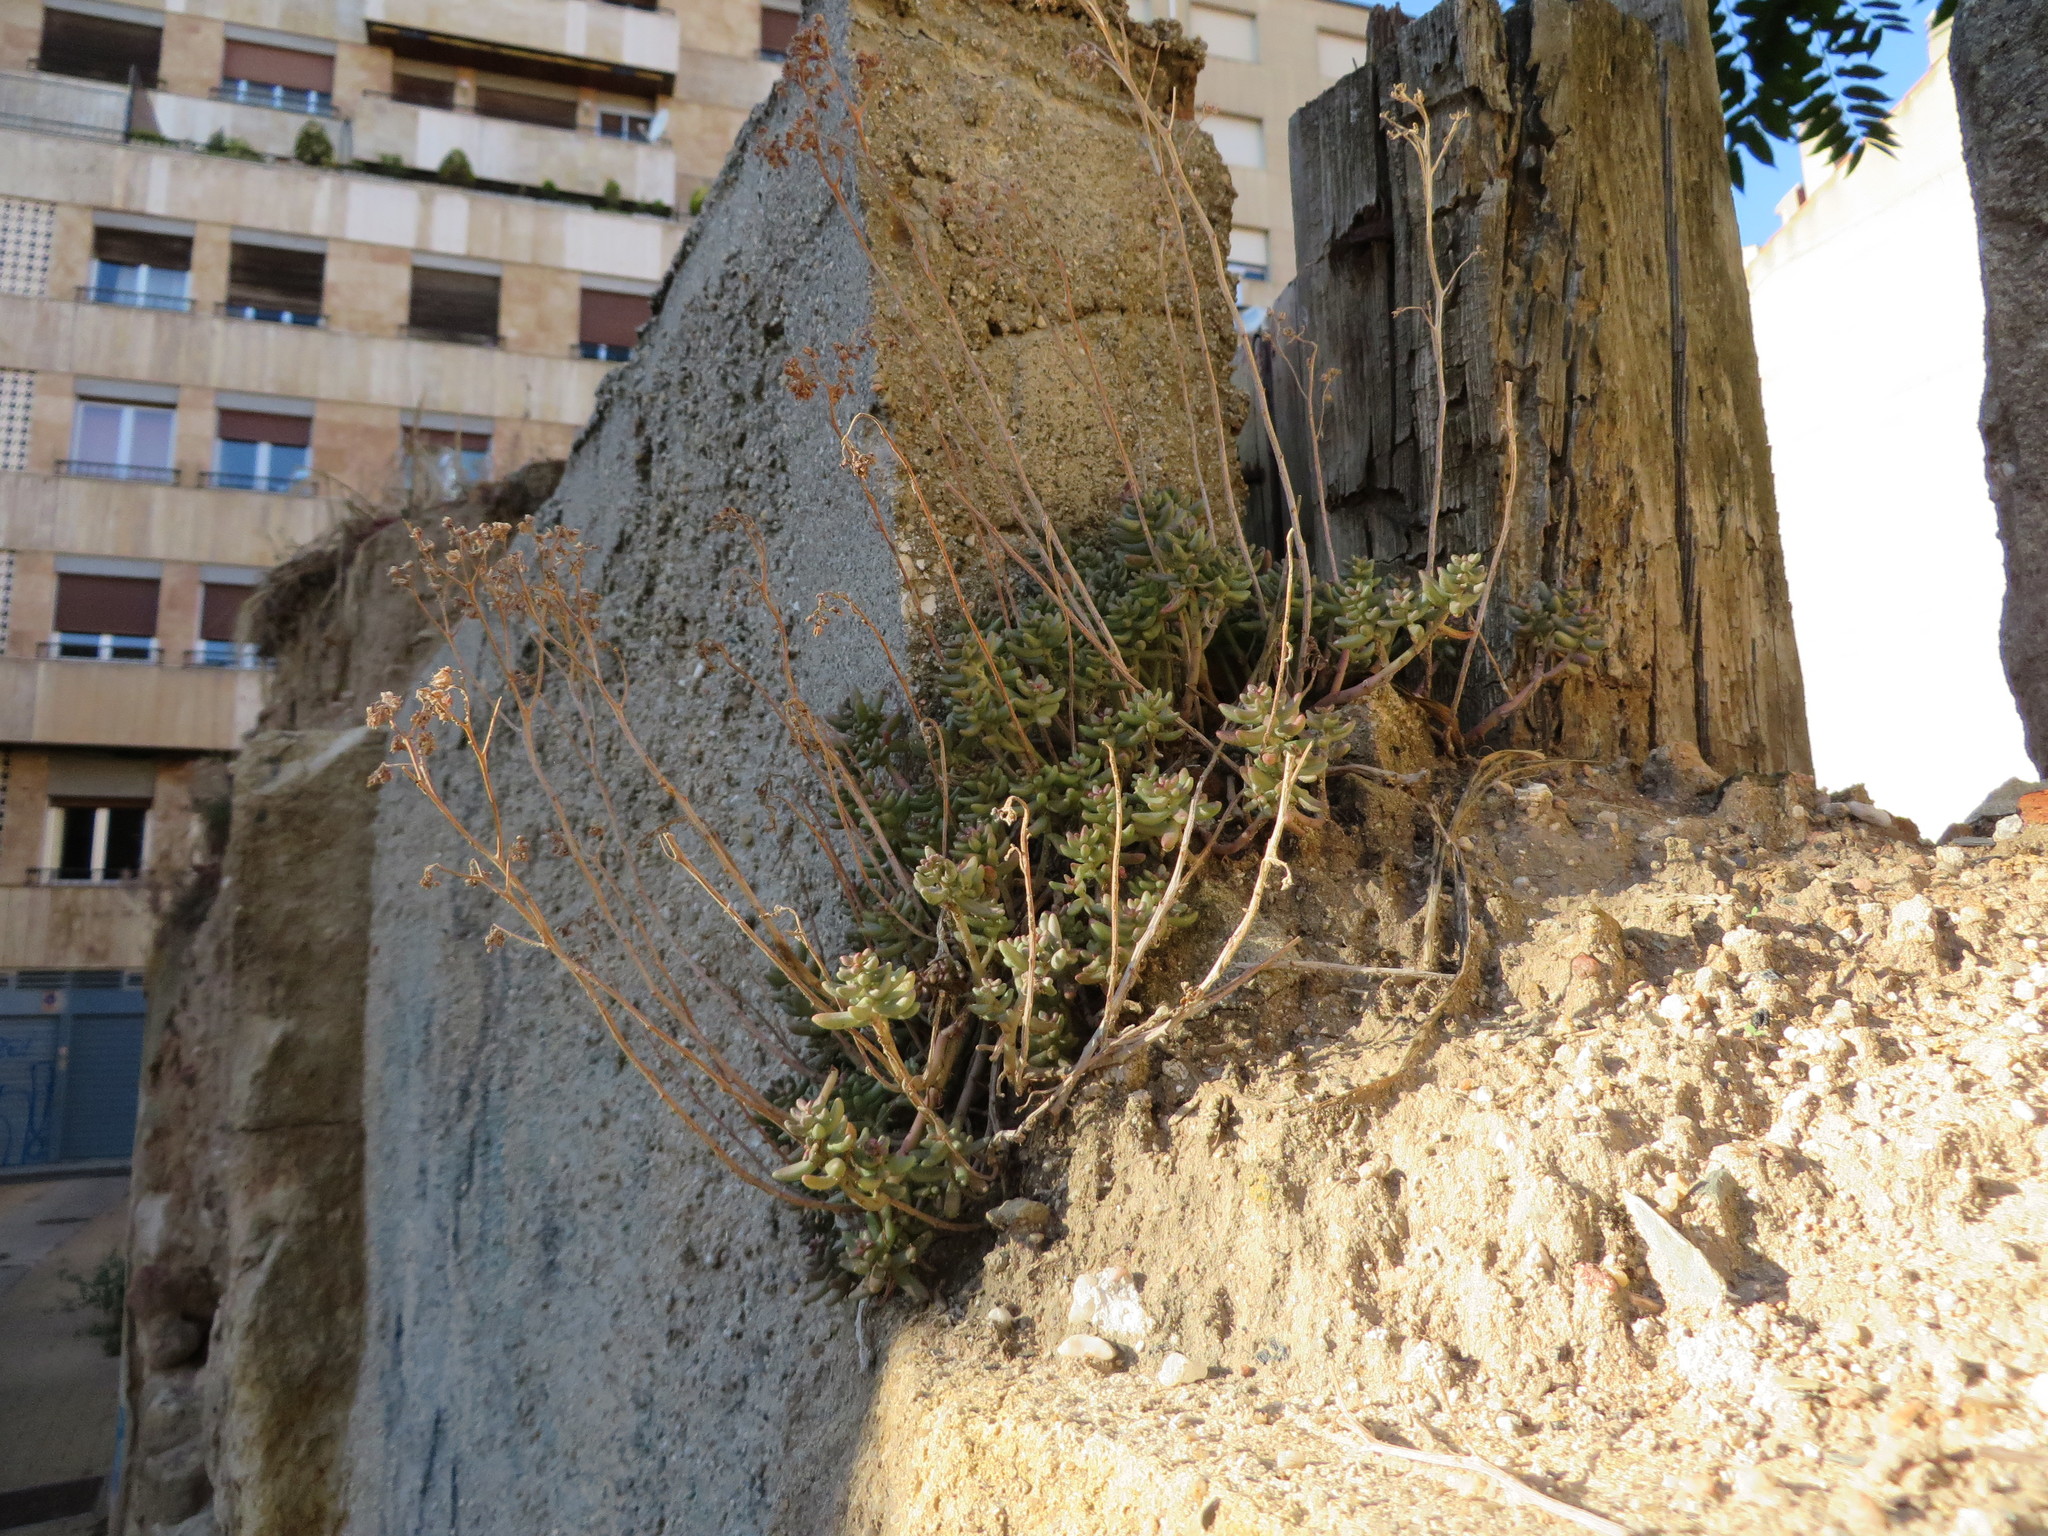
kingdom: Plantae
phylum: Tracheophyta
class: Magnoliopsida
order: Saxifragales
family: Crassulaceae
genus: Sedum
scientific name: Sedum album
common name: White stonecrop
